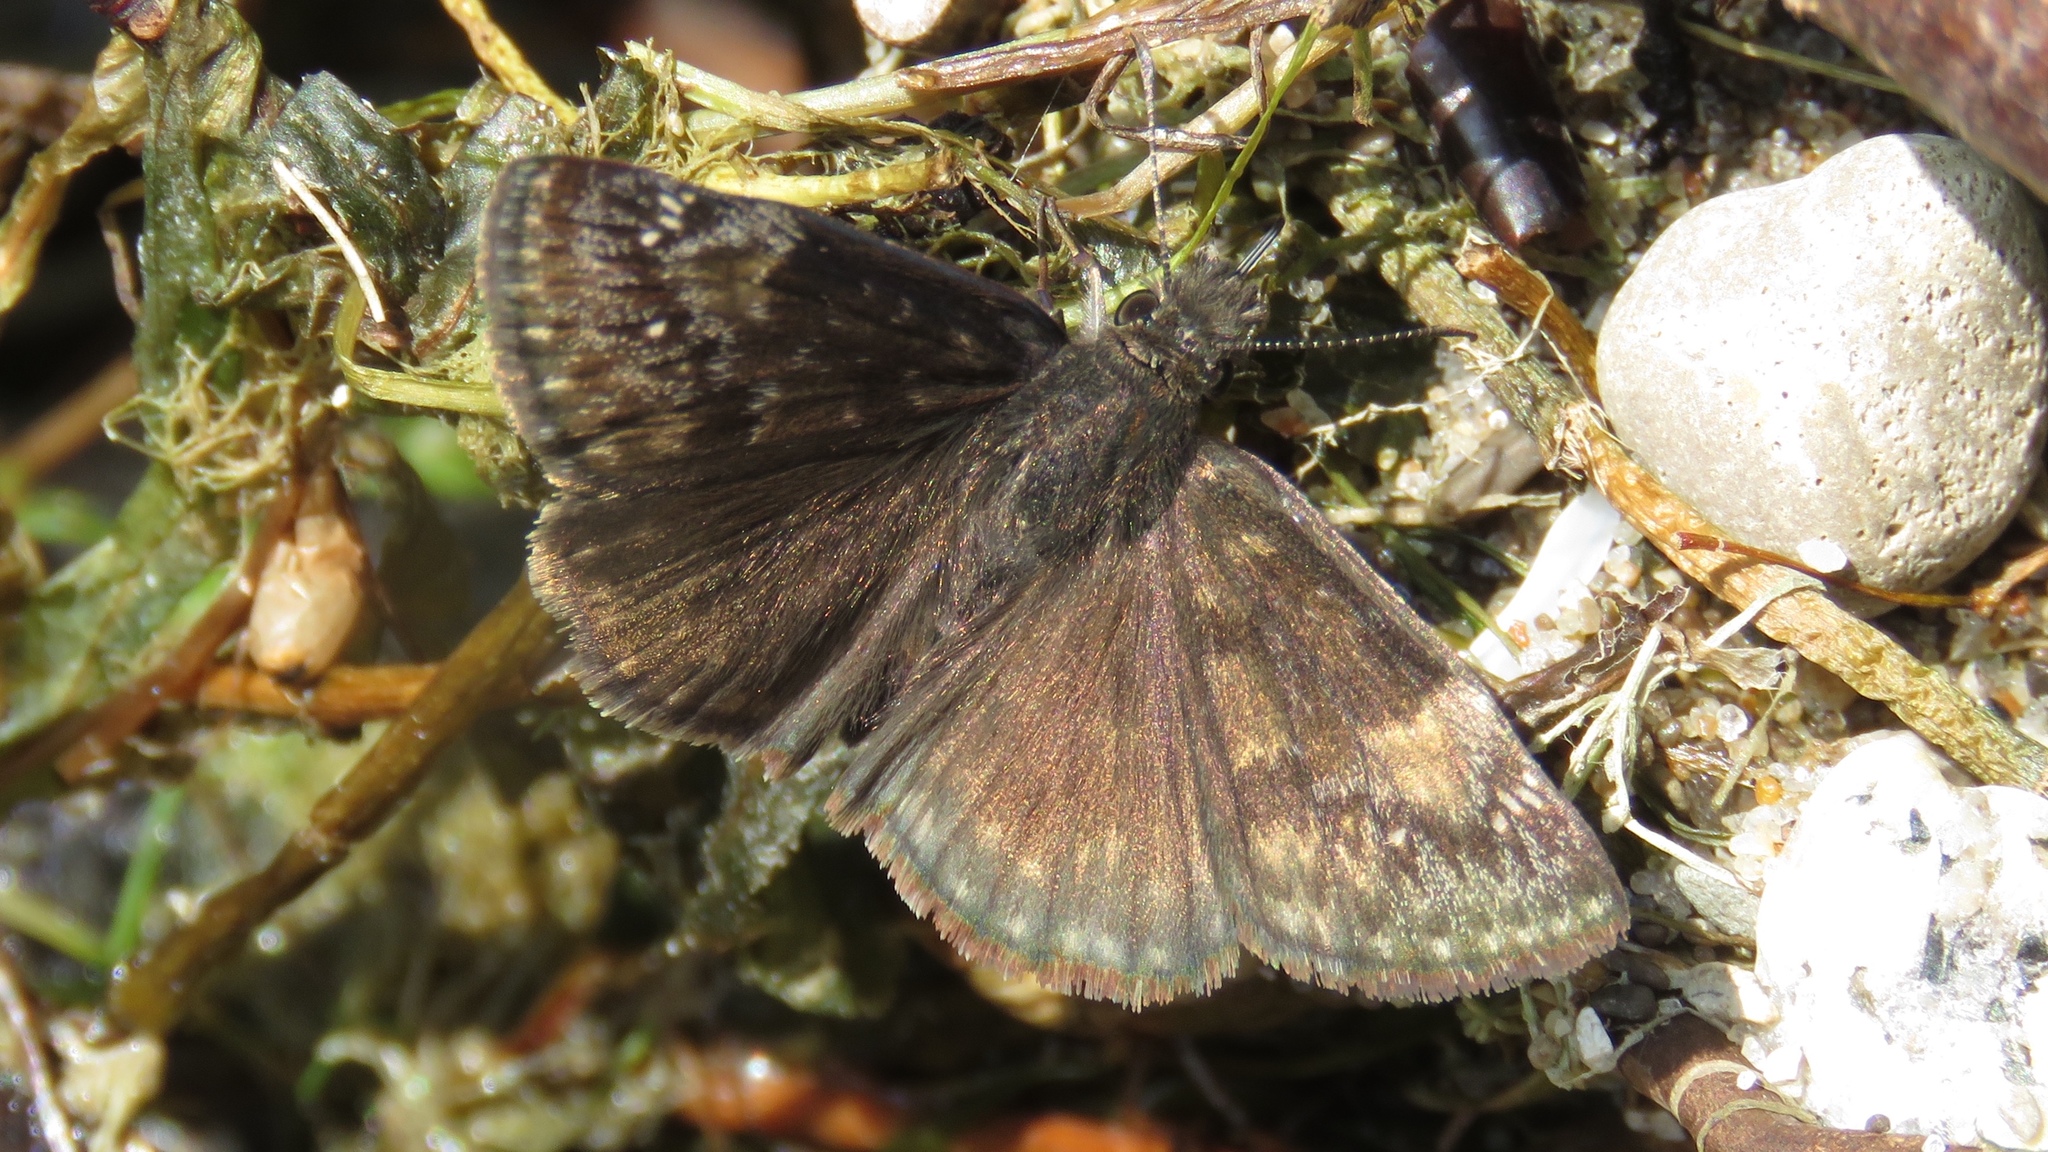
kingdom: Animalia
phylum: Arthropoda
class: Insecta
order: Lepidoptera
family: Hesperiidae
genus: Erynnis
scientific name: Erynnis baptisiae
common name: Wild indigo duskywing
